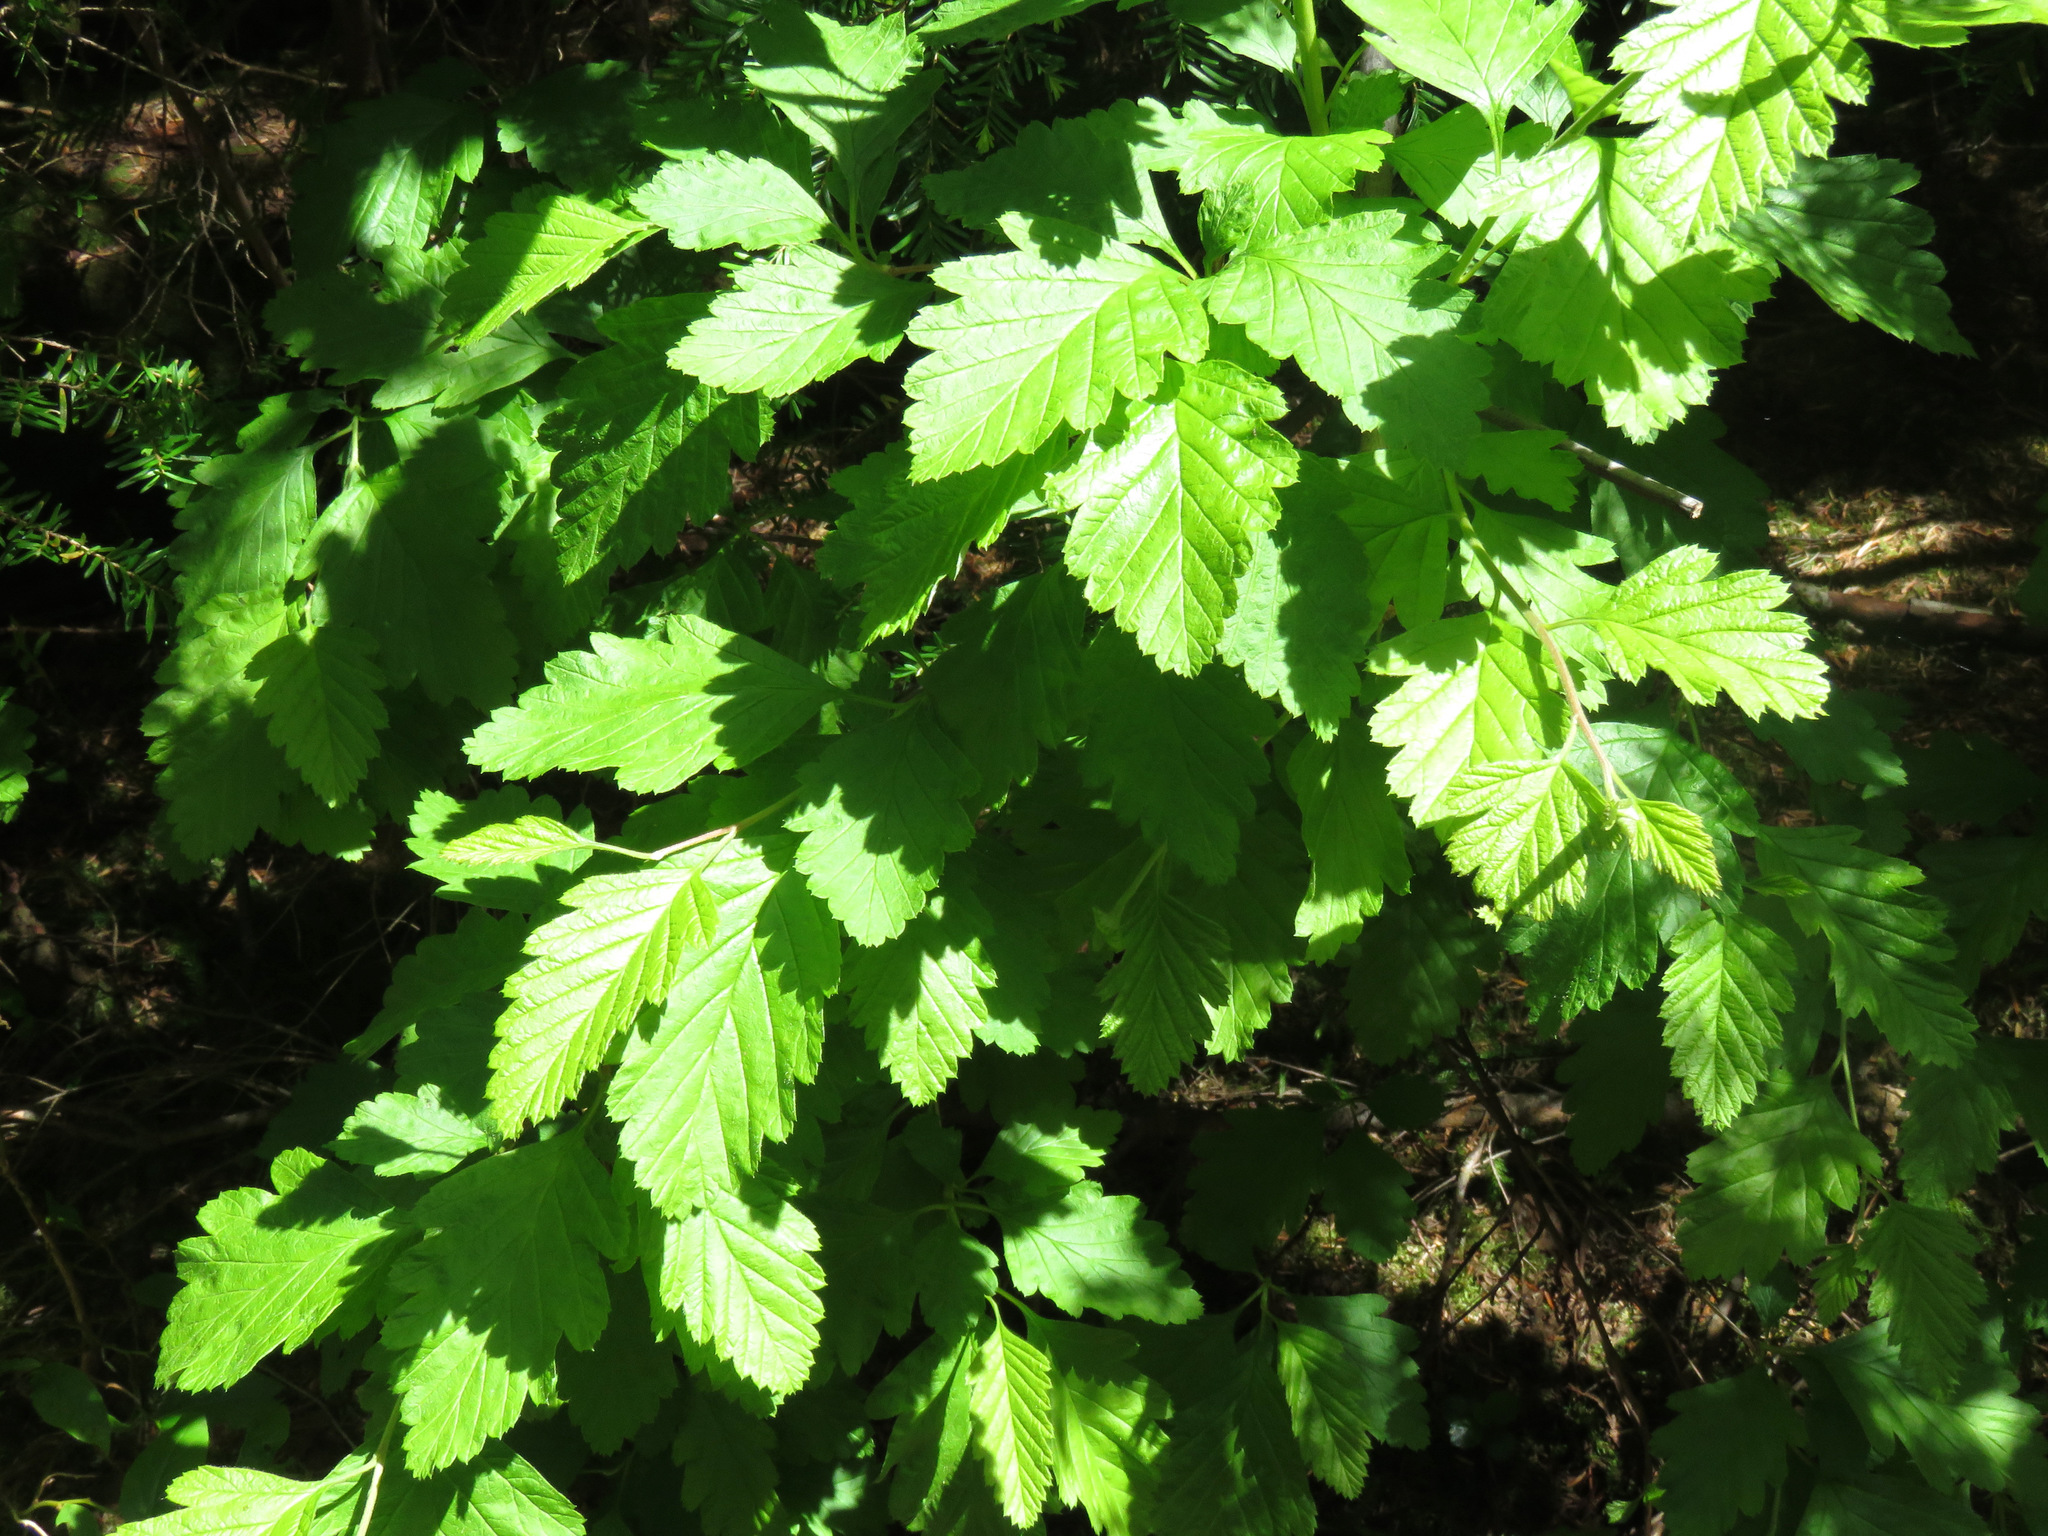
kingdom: Plantae
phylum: Tracheophyta
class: Magnoliopsida
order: Rosales
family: Rosaceae
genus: Holodiscus
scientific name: Holodiscus discolor
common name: Oceanspray
